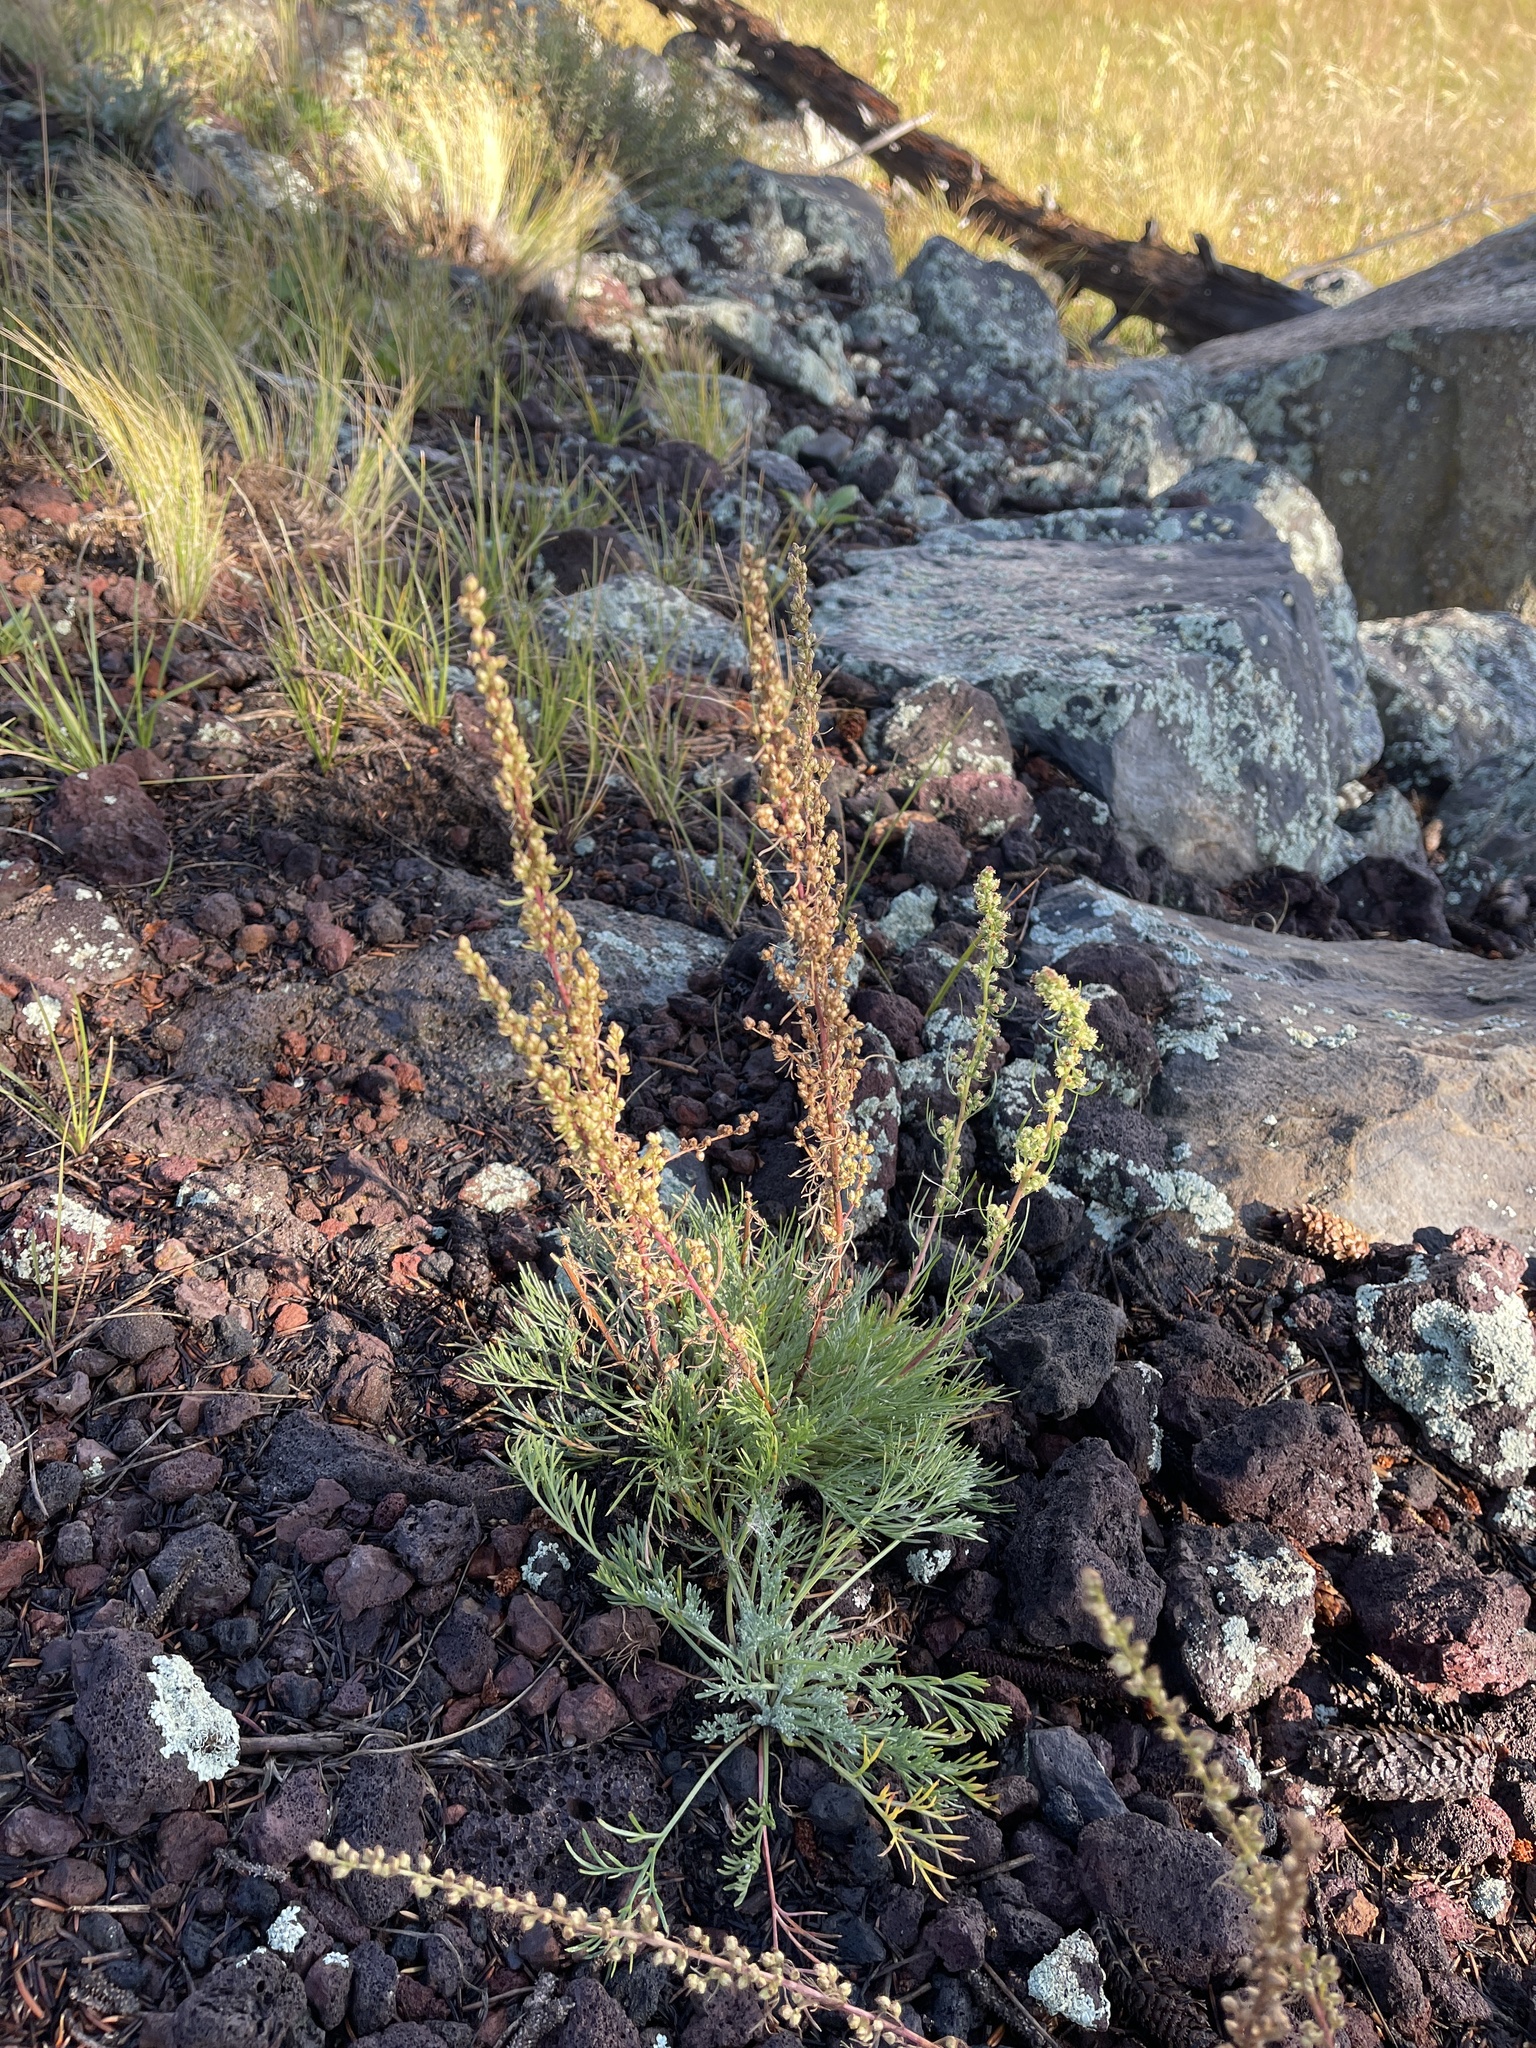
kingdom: Plantae
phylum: Tracheophyta
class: Magnoliopsida
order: Asterales
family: Asteraceae
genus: Artemisia
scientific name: Artemisia campestris
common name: Field wormwood
